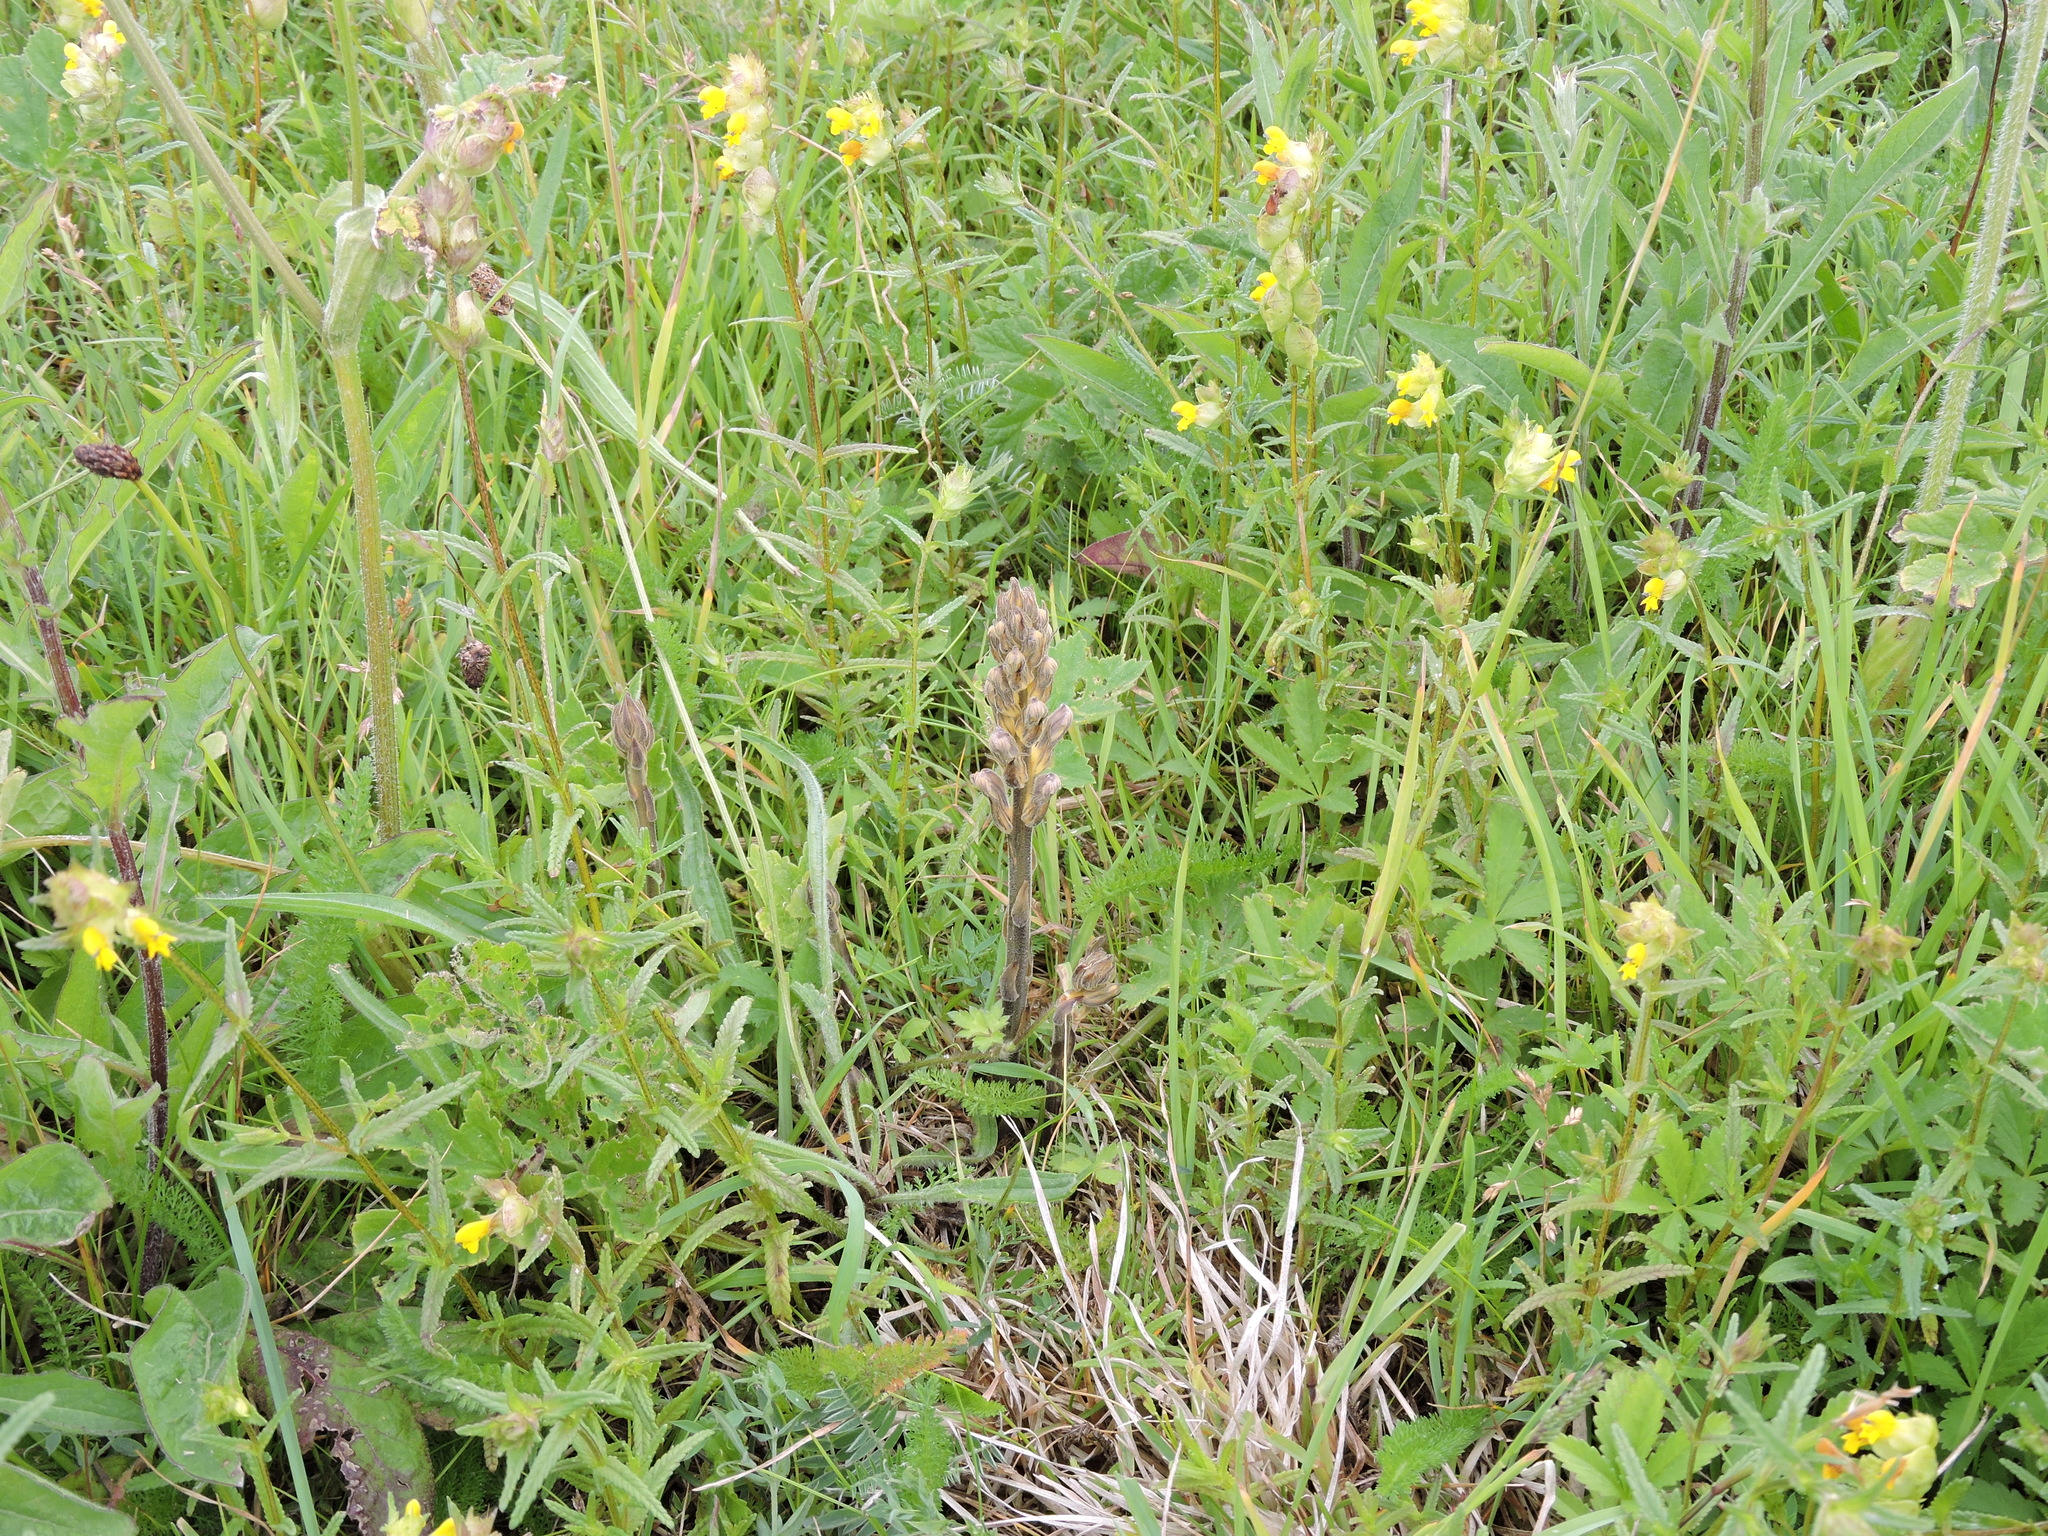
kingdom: Plantae
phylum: Tracheophyta
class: Magnoliopsida
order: Lamiales
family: Orobanchaceae
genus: Rhinanthus
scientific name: Rhinanthus minor
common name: Yellow-rattle
